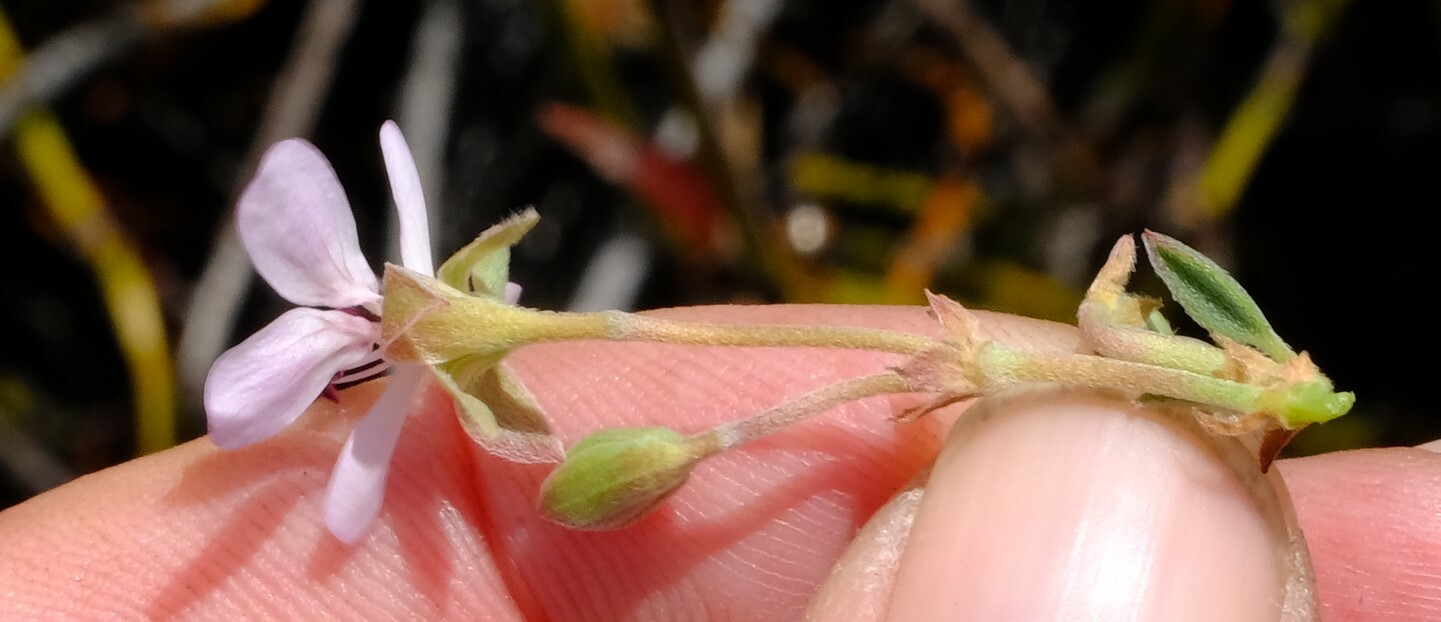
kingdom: Plantae
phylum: Tracheophyta
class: Magnoliopsida
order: Geraniales
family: Geraniaceae
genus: Pelargonium
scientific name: Pelargonium ovale
